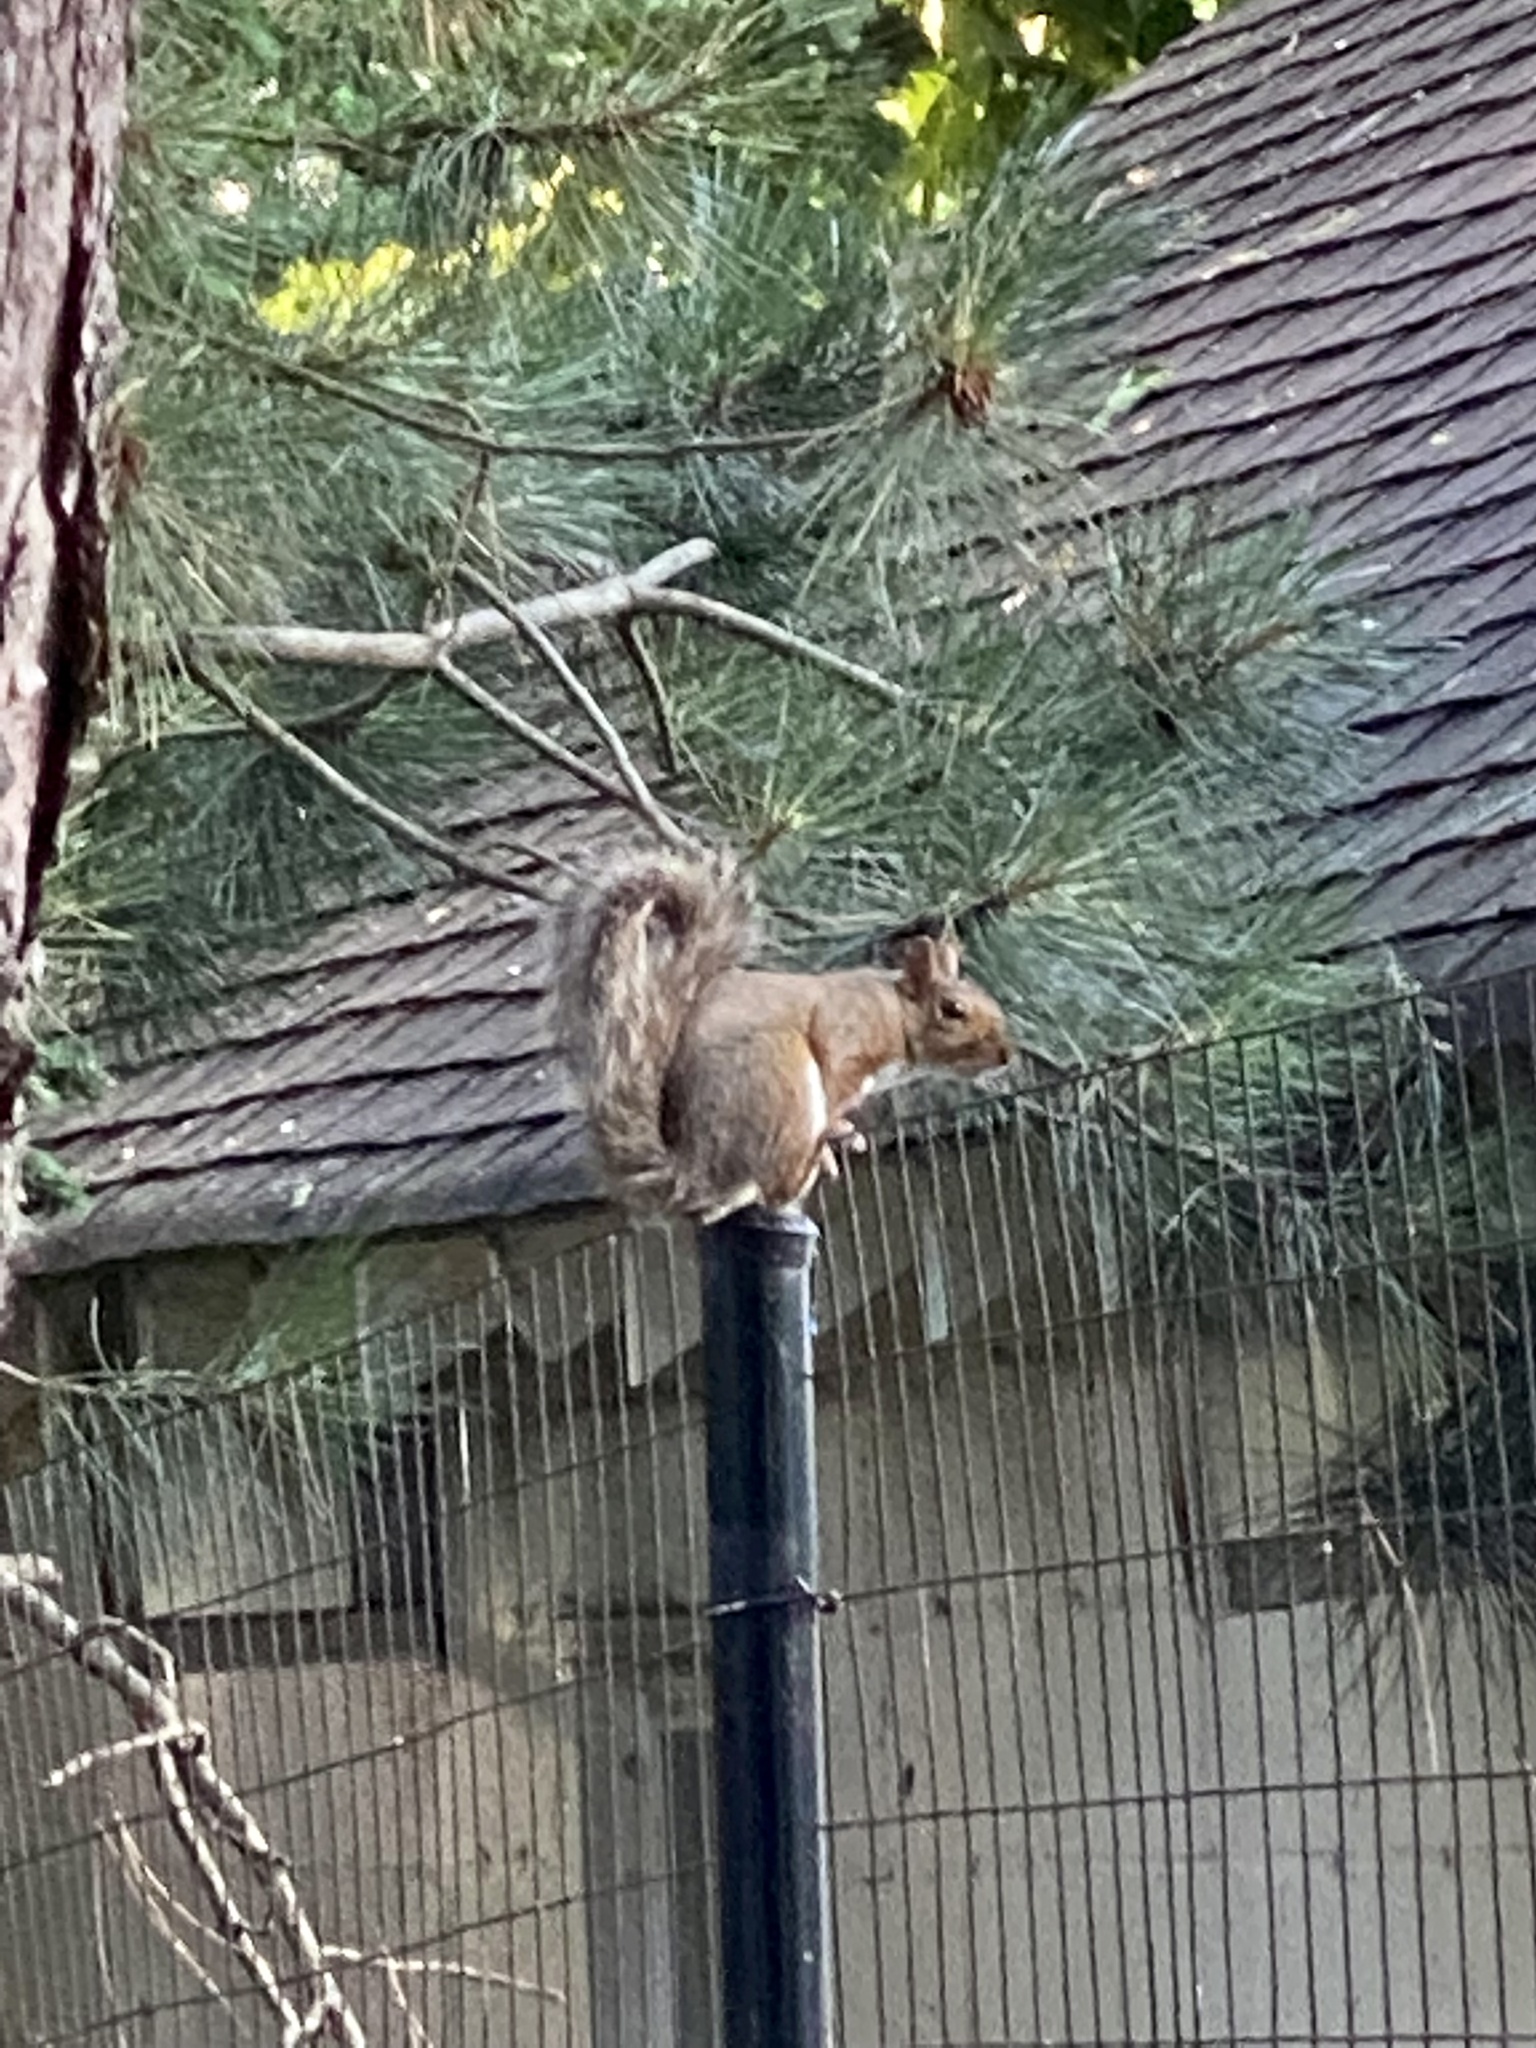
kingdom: Animalia
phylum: Chordata
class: Mammalia
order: Rodentia
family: Sciuridae
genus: Sciurus
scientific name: Sciurus carolinensis
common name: Eastern gray squirrel
